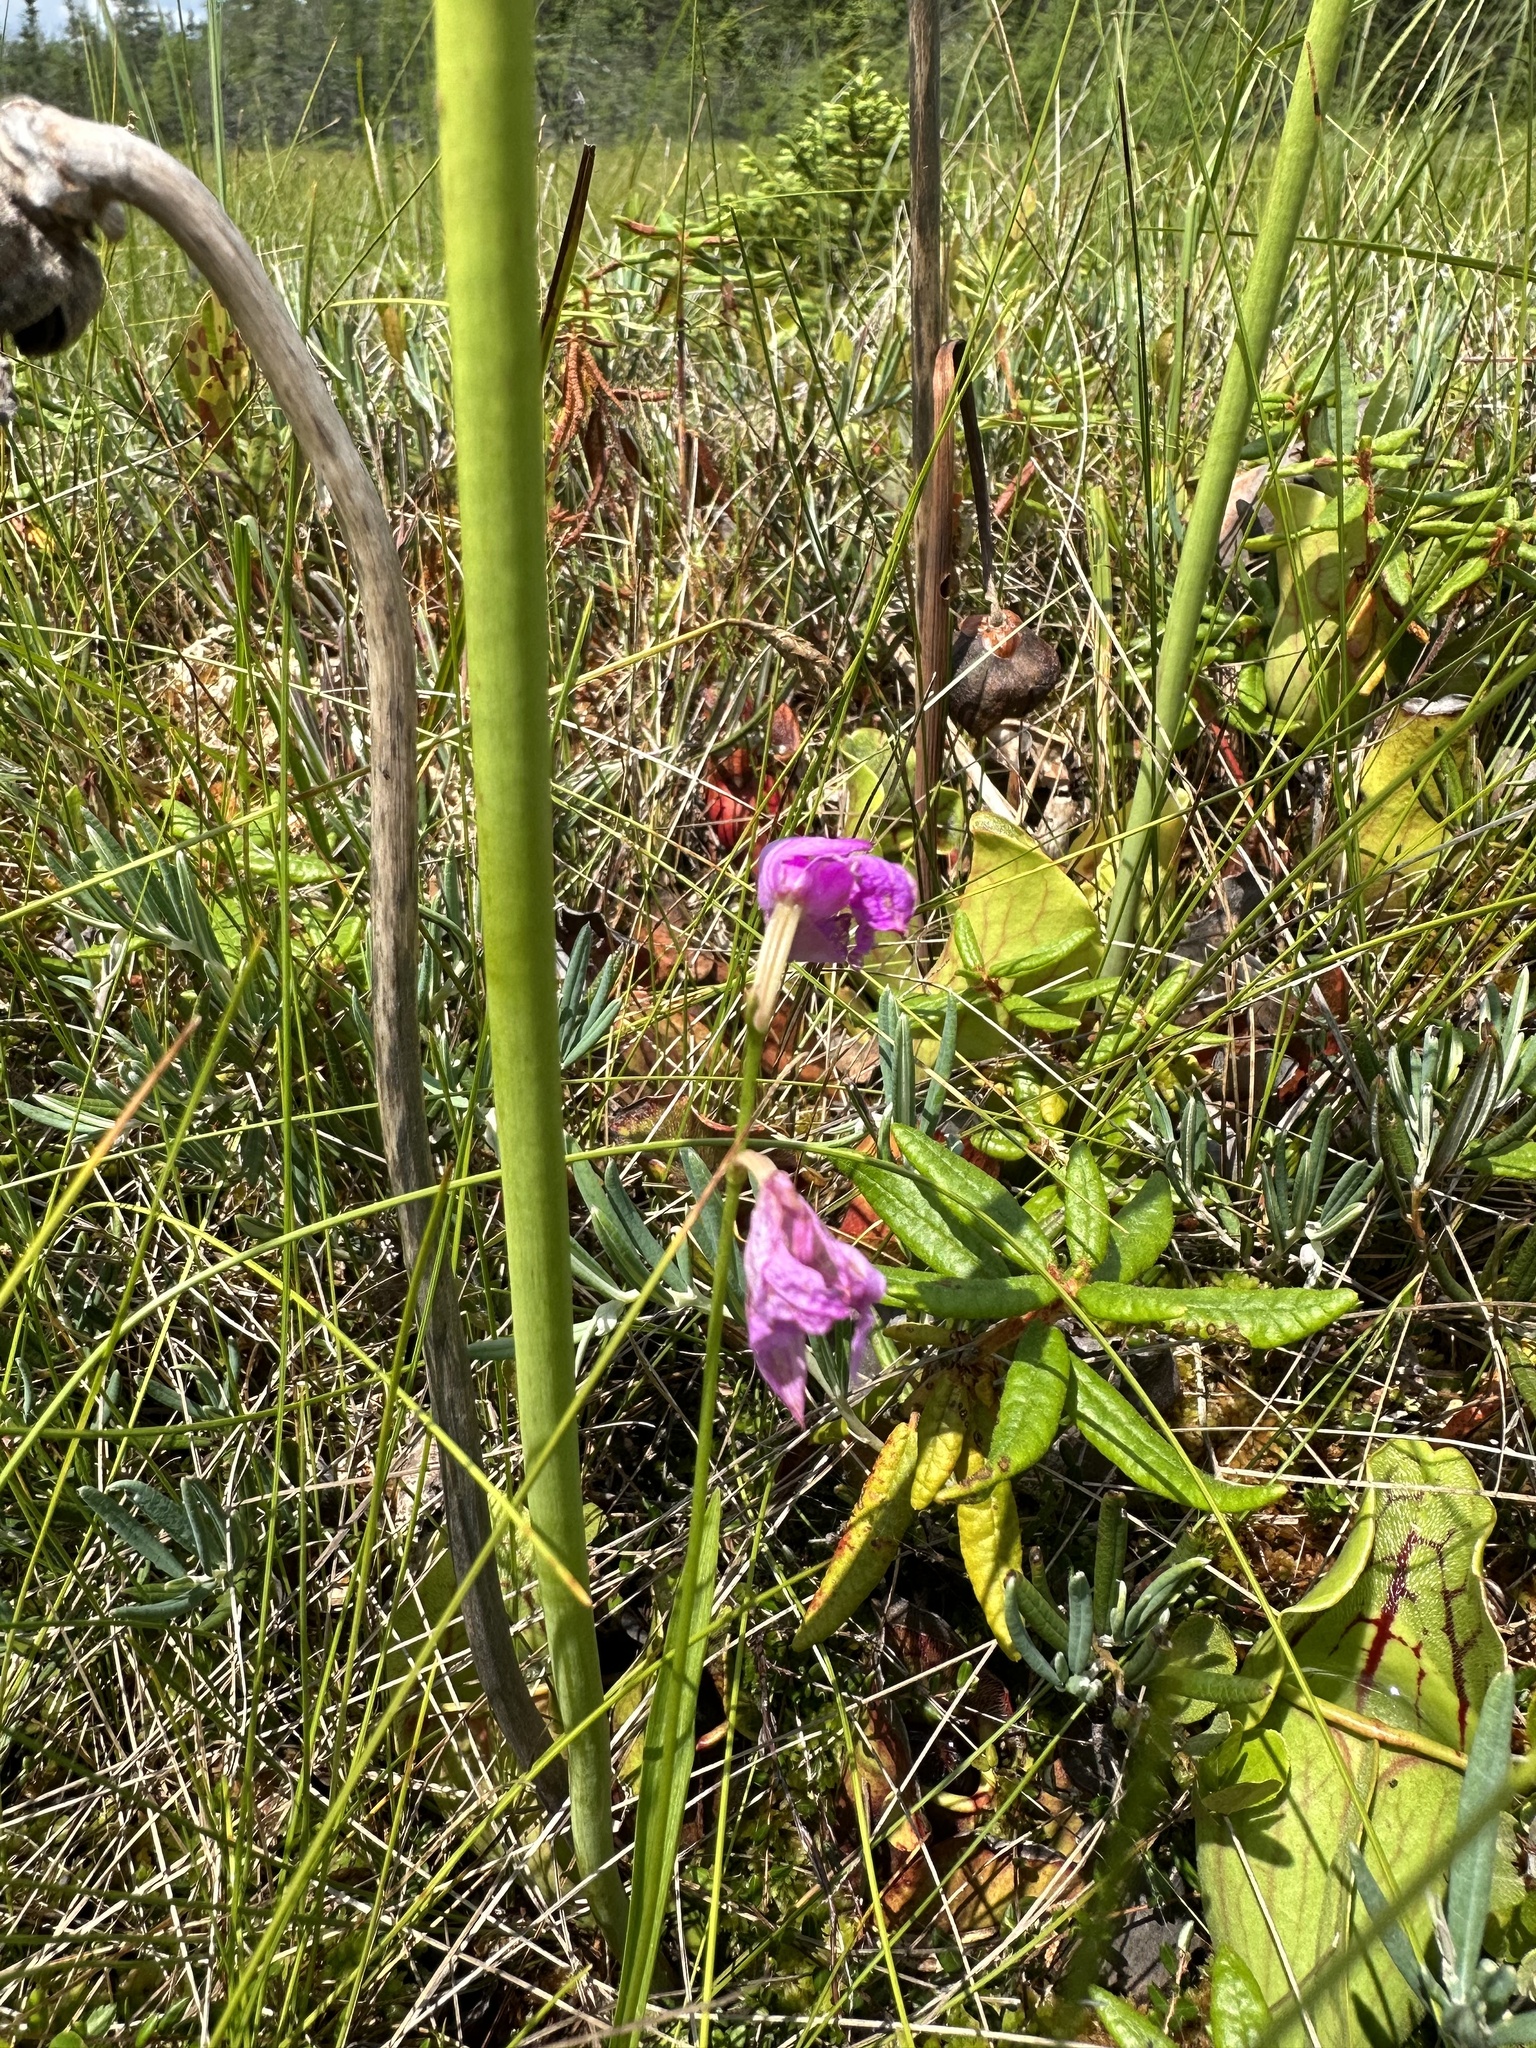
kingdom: Plantae
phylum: Tracheophyta
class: Liliopsida
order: Asparagales
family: Orchidaceae
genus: Calopogon
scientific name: Calopogon tuberosus
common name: Grass-pink
